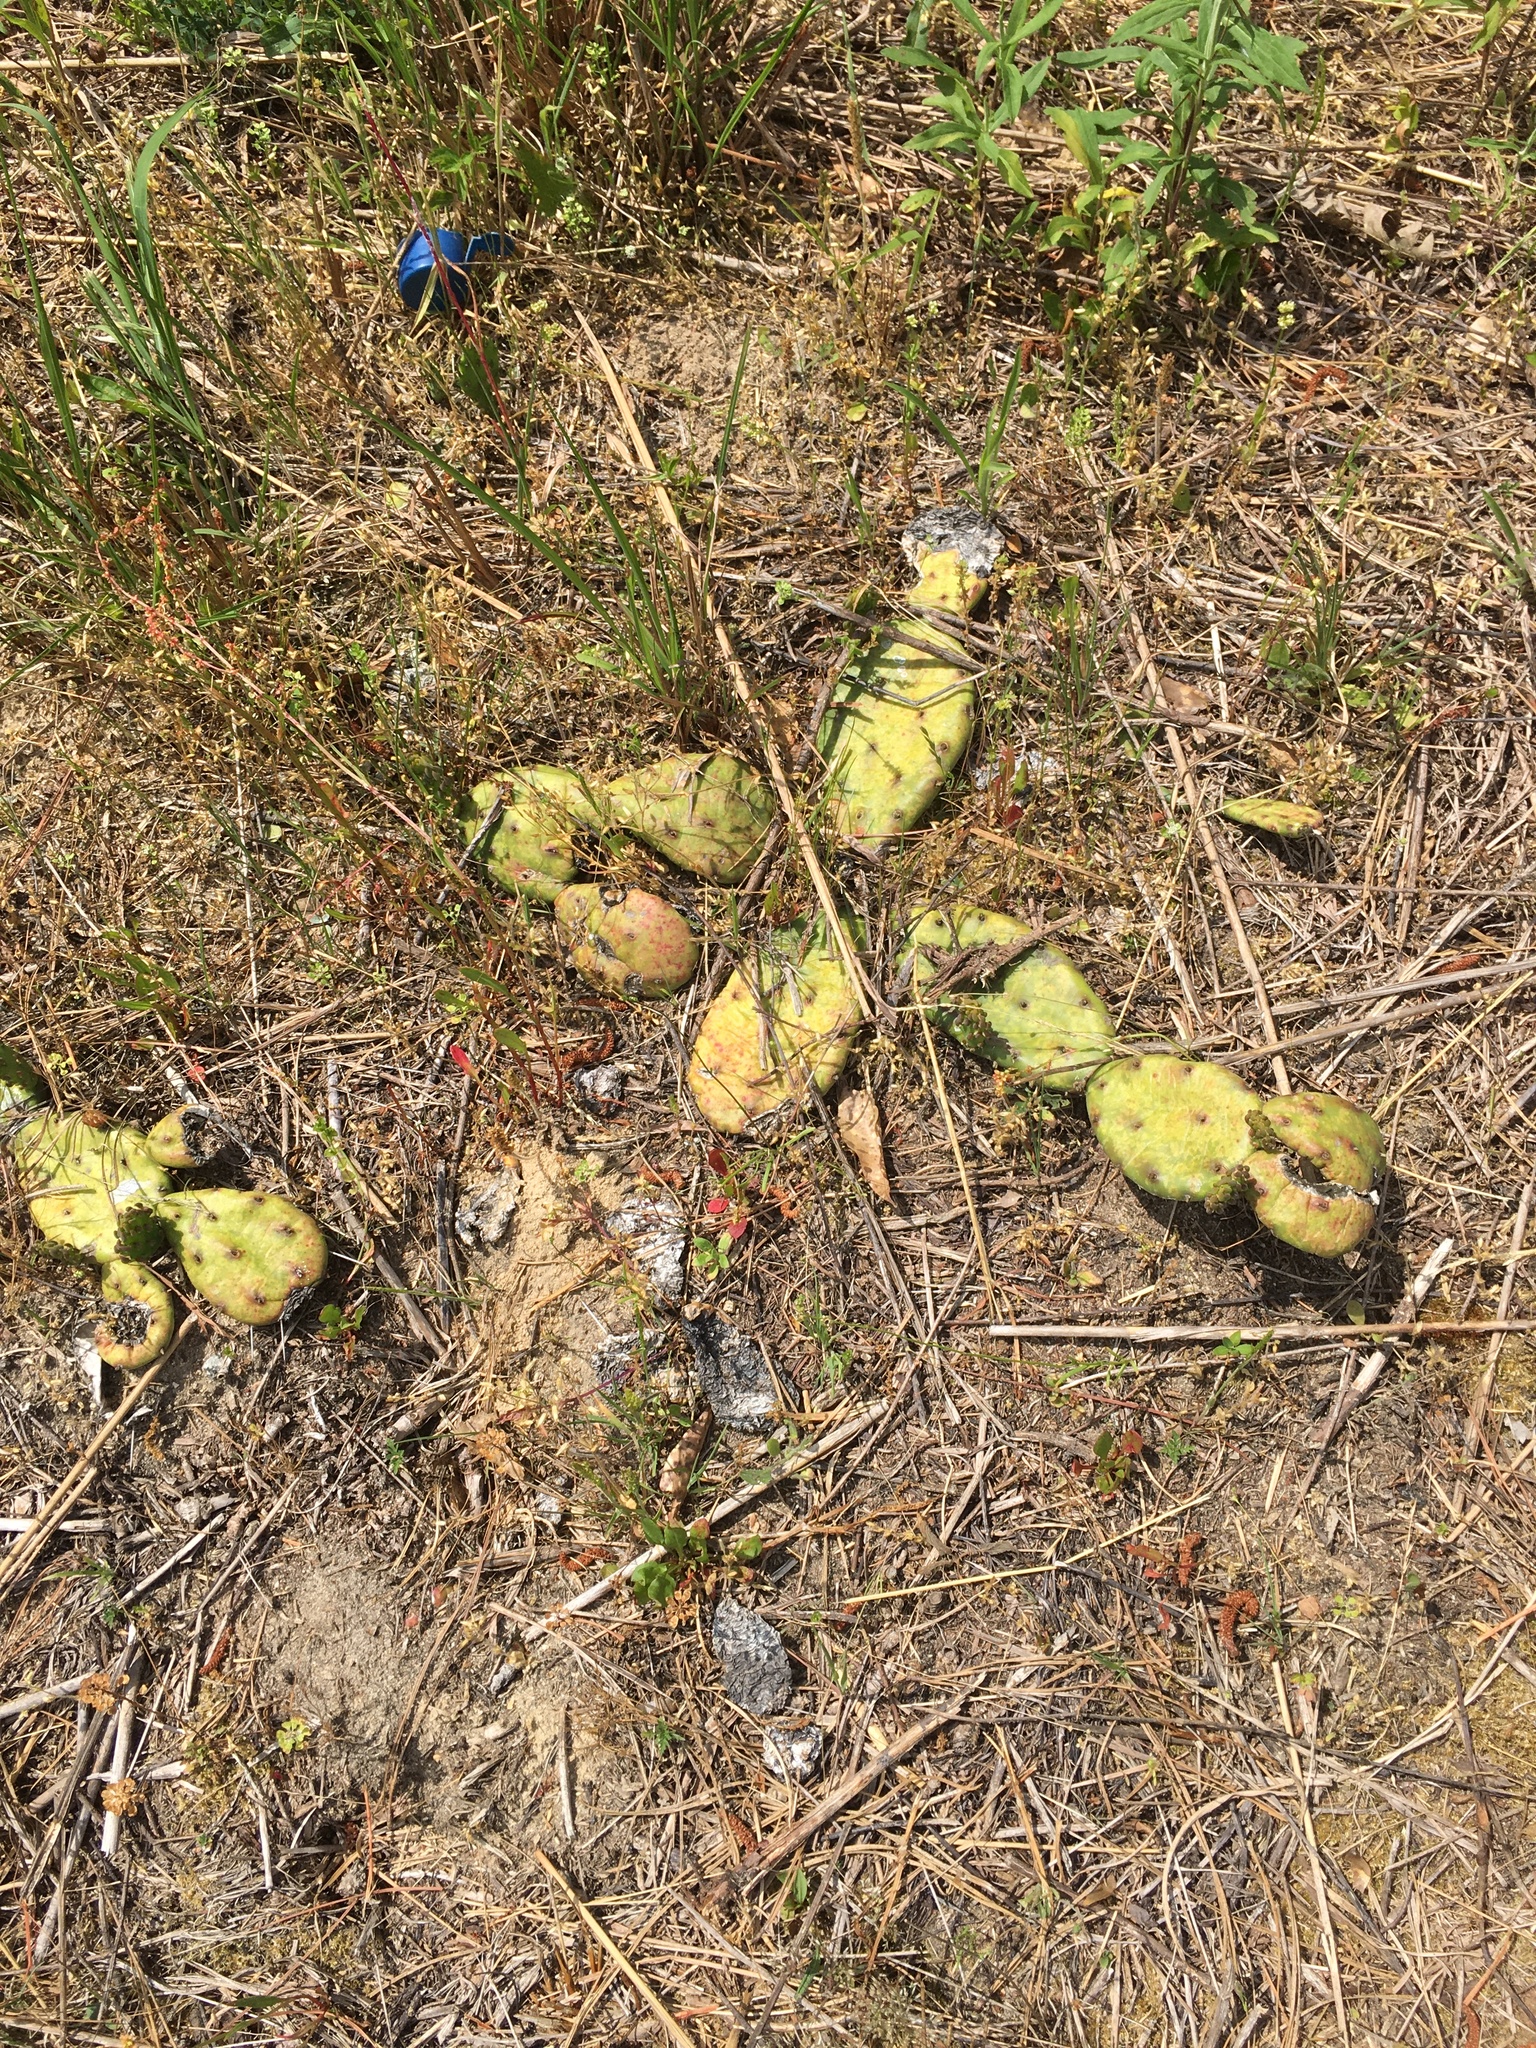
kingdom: Plantae
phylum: Tracheophyta
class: Magnoliopsida
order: Caryophyllales
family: Cactaceae
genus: Opuntia
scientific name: Opuntia mesacantha
